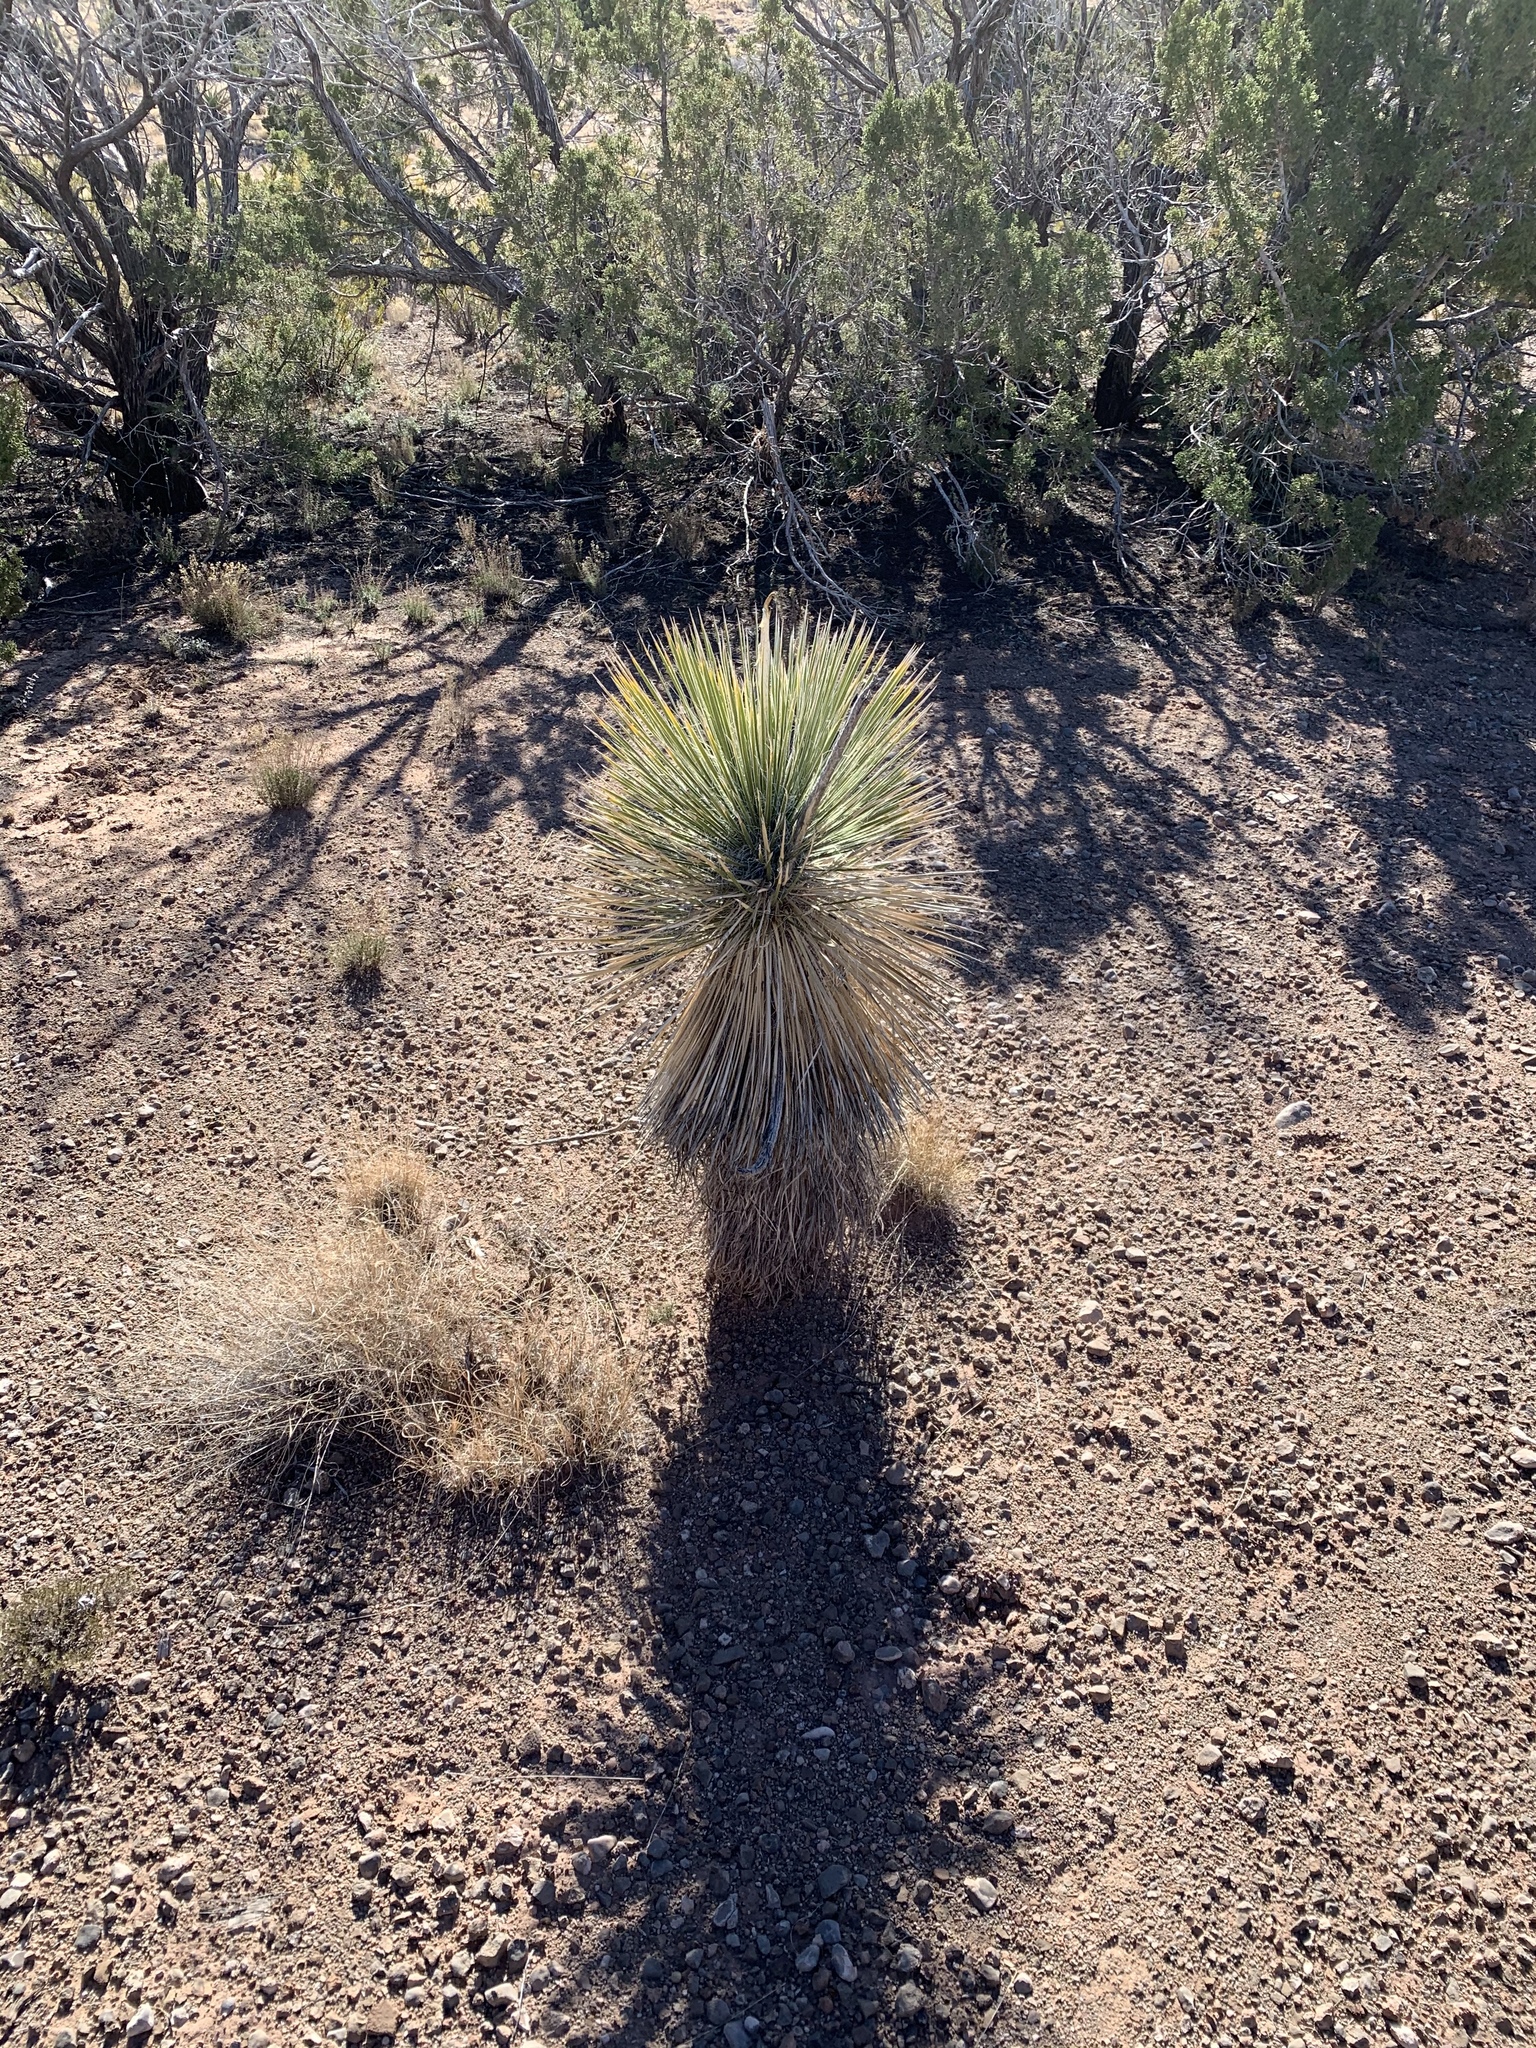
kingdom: Plantae
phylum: Tracheophyta
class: Liliopsida
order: Asparagales
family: Asparagaceae
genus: Yucca
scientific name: Yucca elata
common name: Palmella
